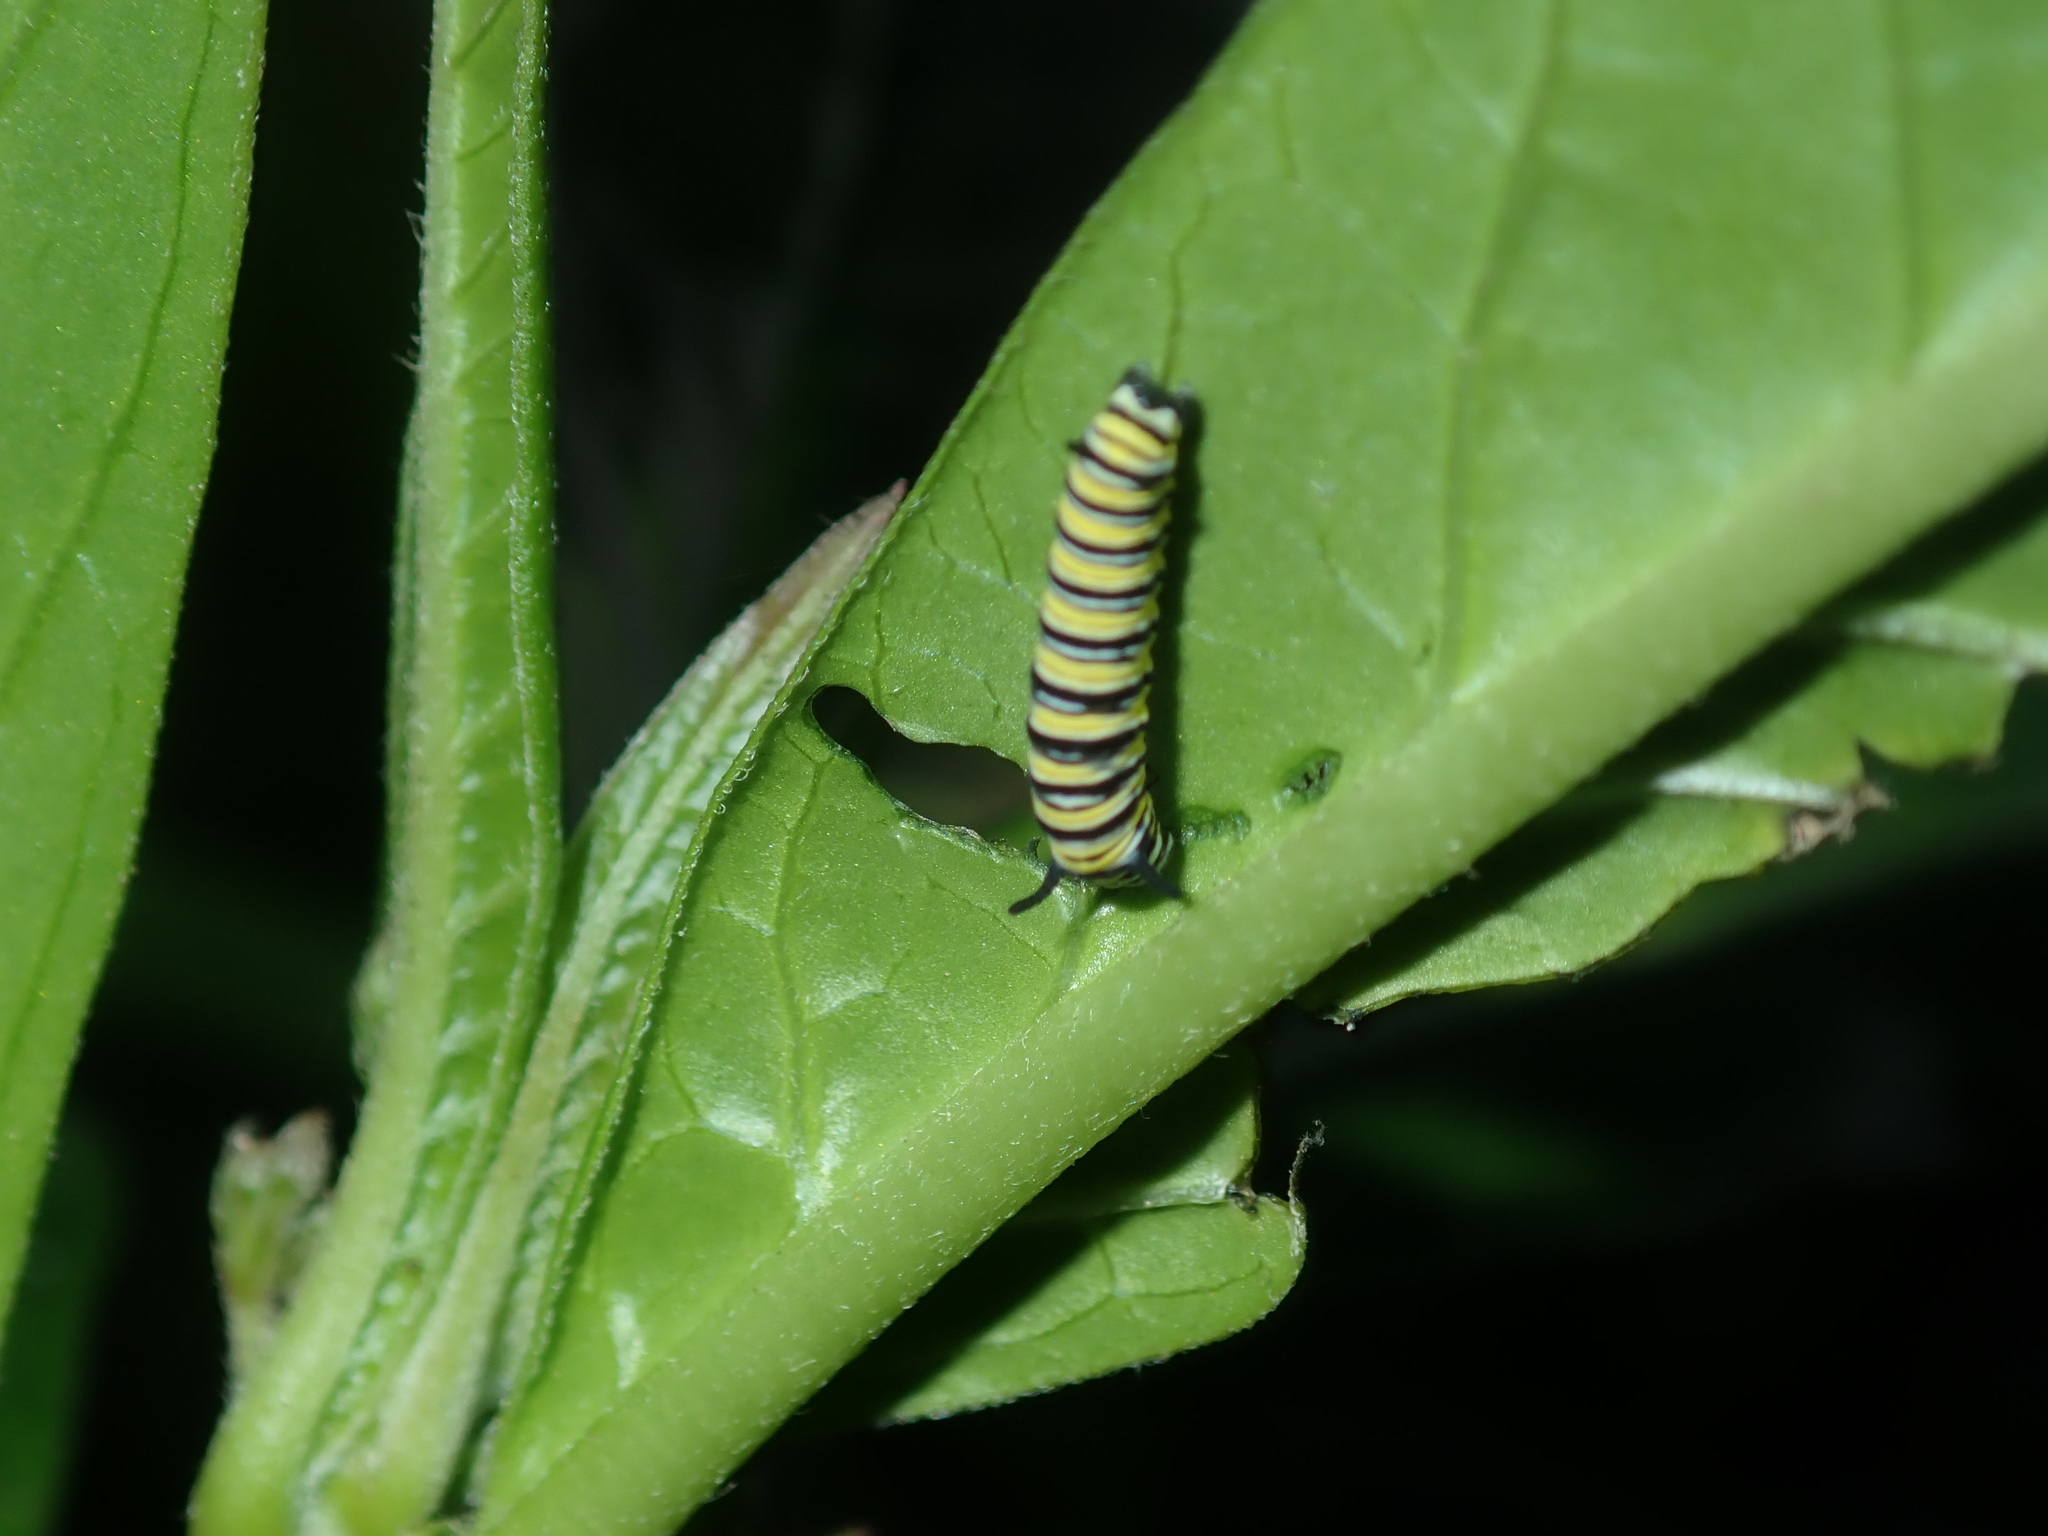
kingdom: Animalia
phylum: Arthropoda
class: Insecta
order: Lepidoptera
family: Nymphalidae
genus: Danaus
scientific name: Danaus plexippus
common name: Monarch
